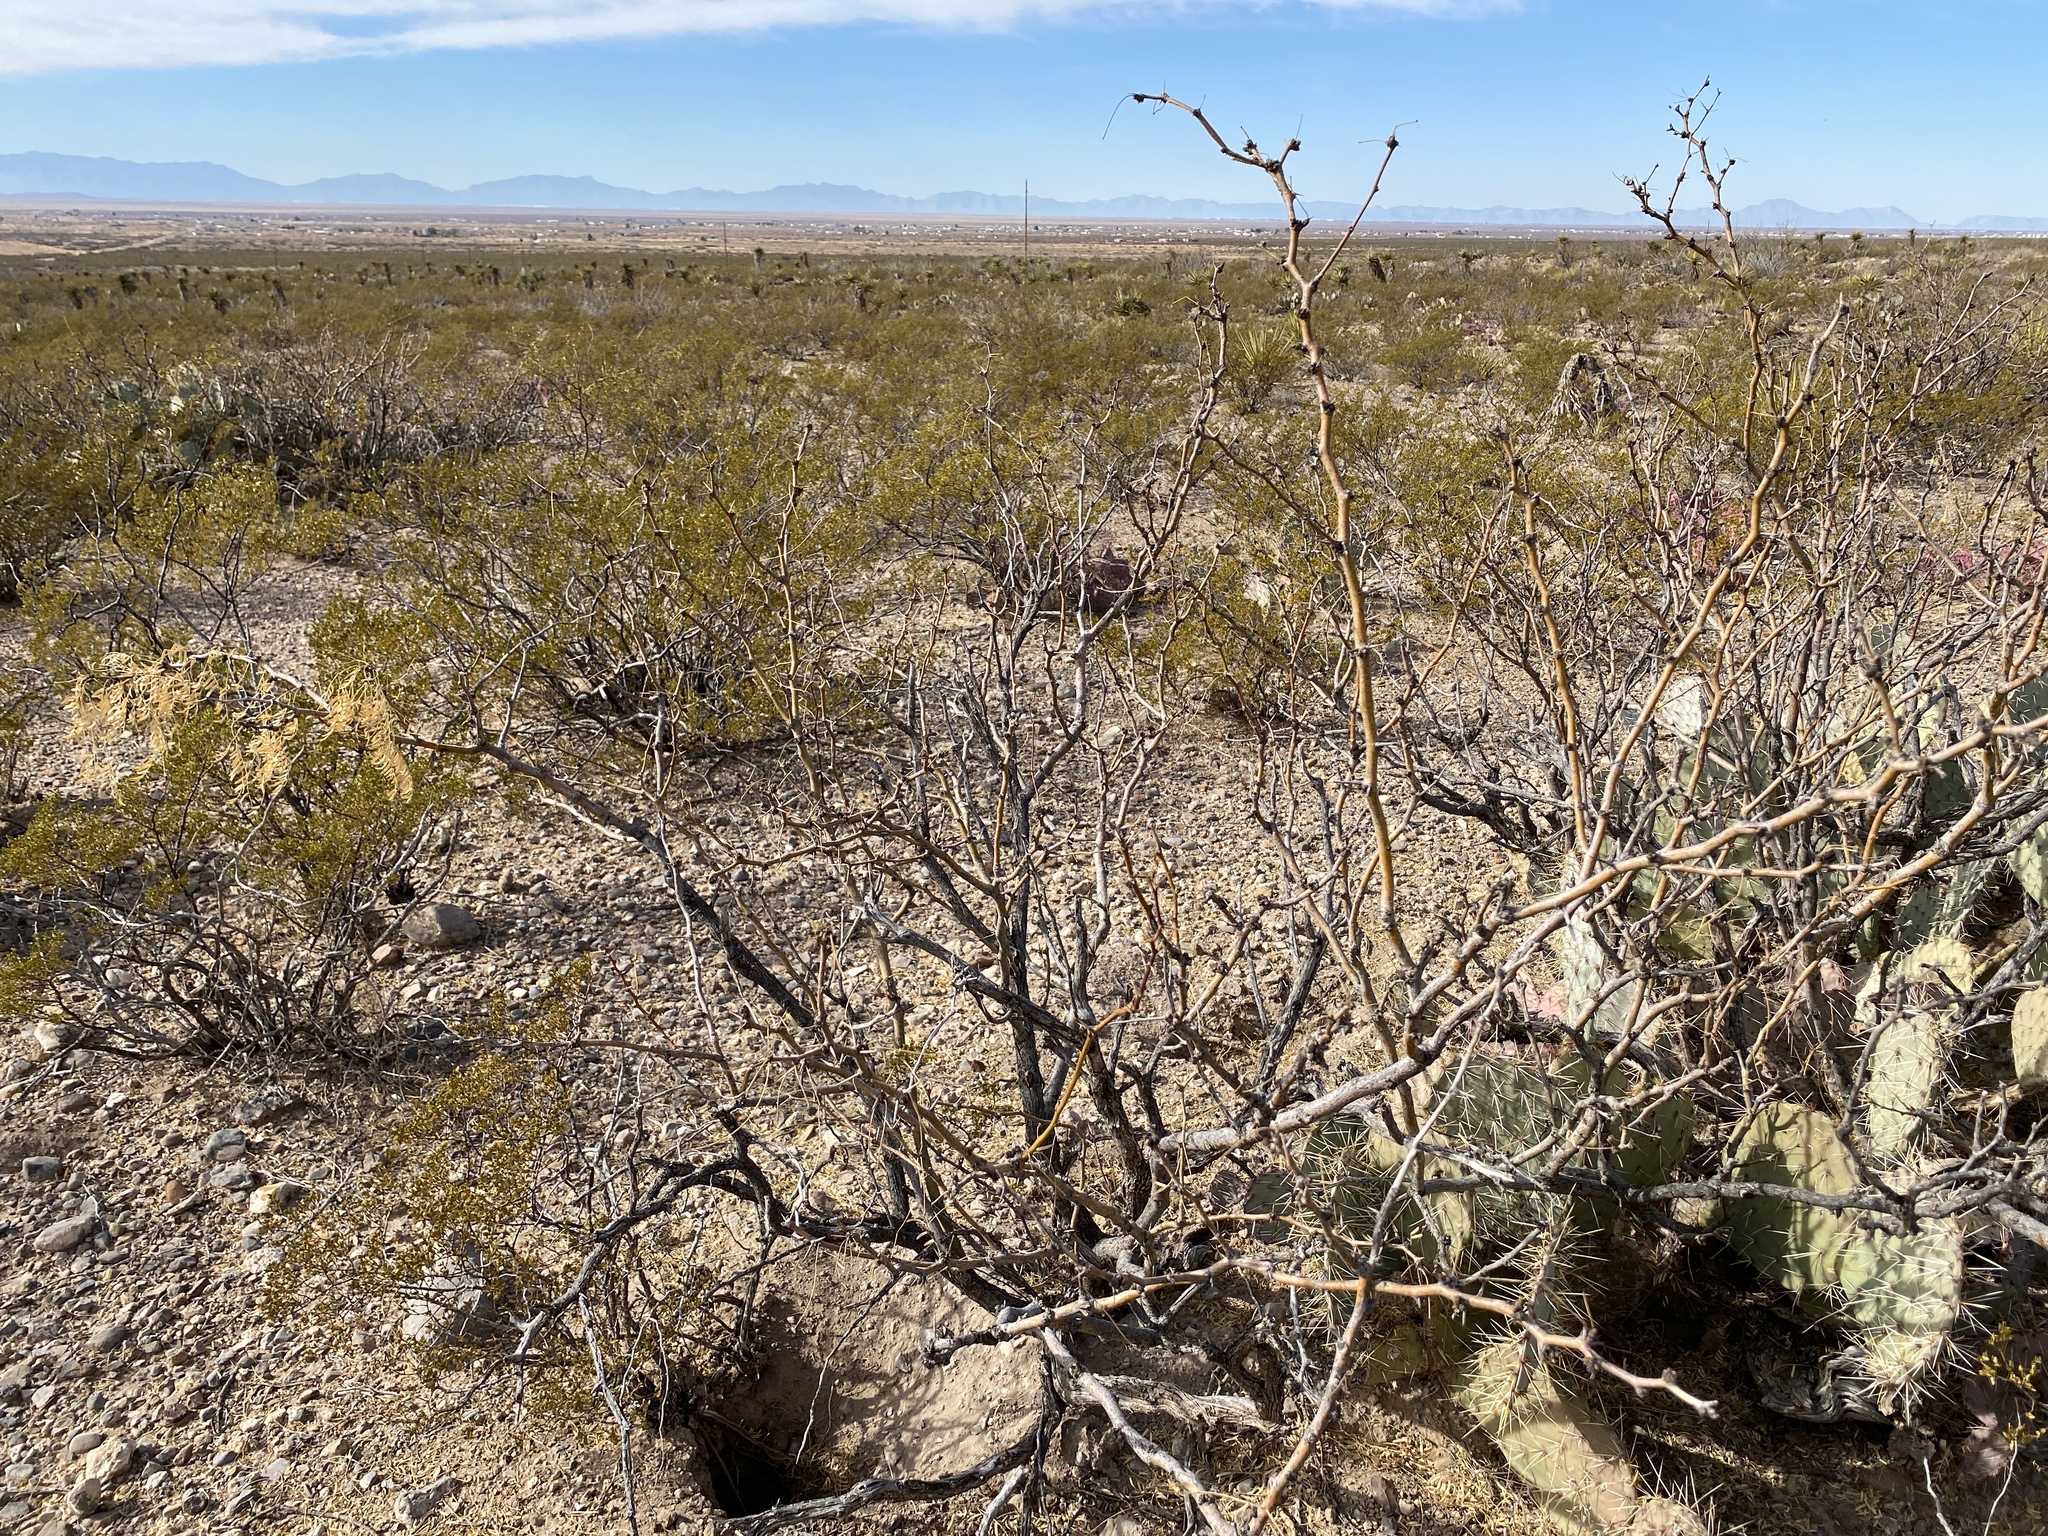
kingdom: Plantae
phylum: Tracheophyta
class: Magnoliopsida
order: Fabales
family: Fabaceae
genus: Prosopis
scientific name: Prosopis glandulosa
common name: Honey mesquite
